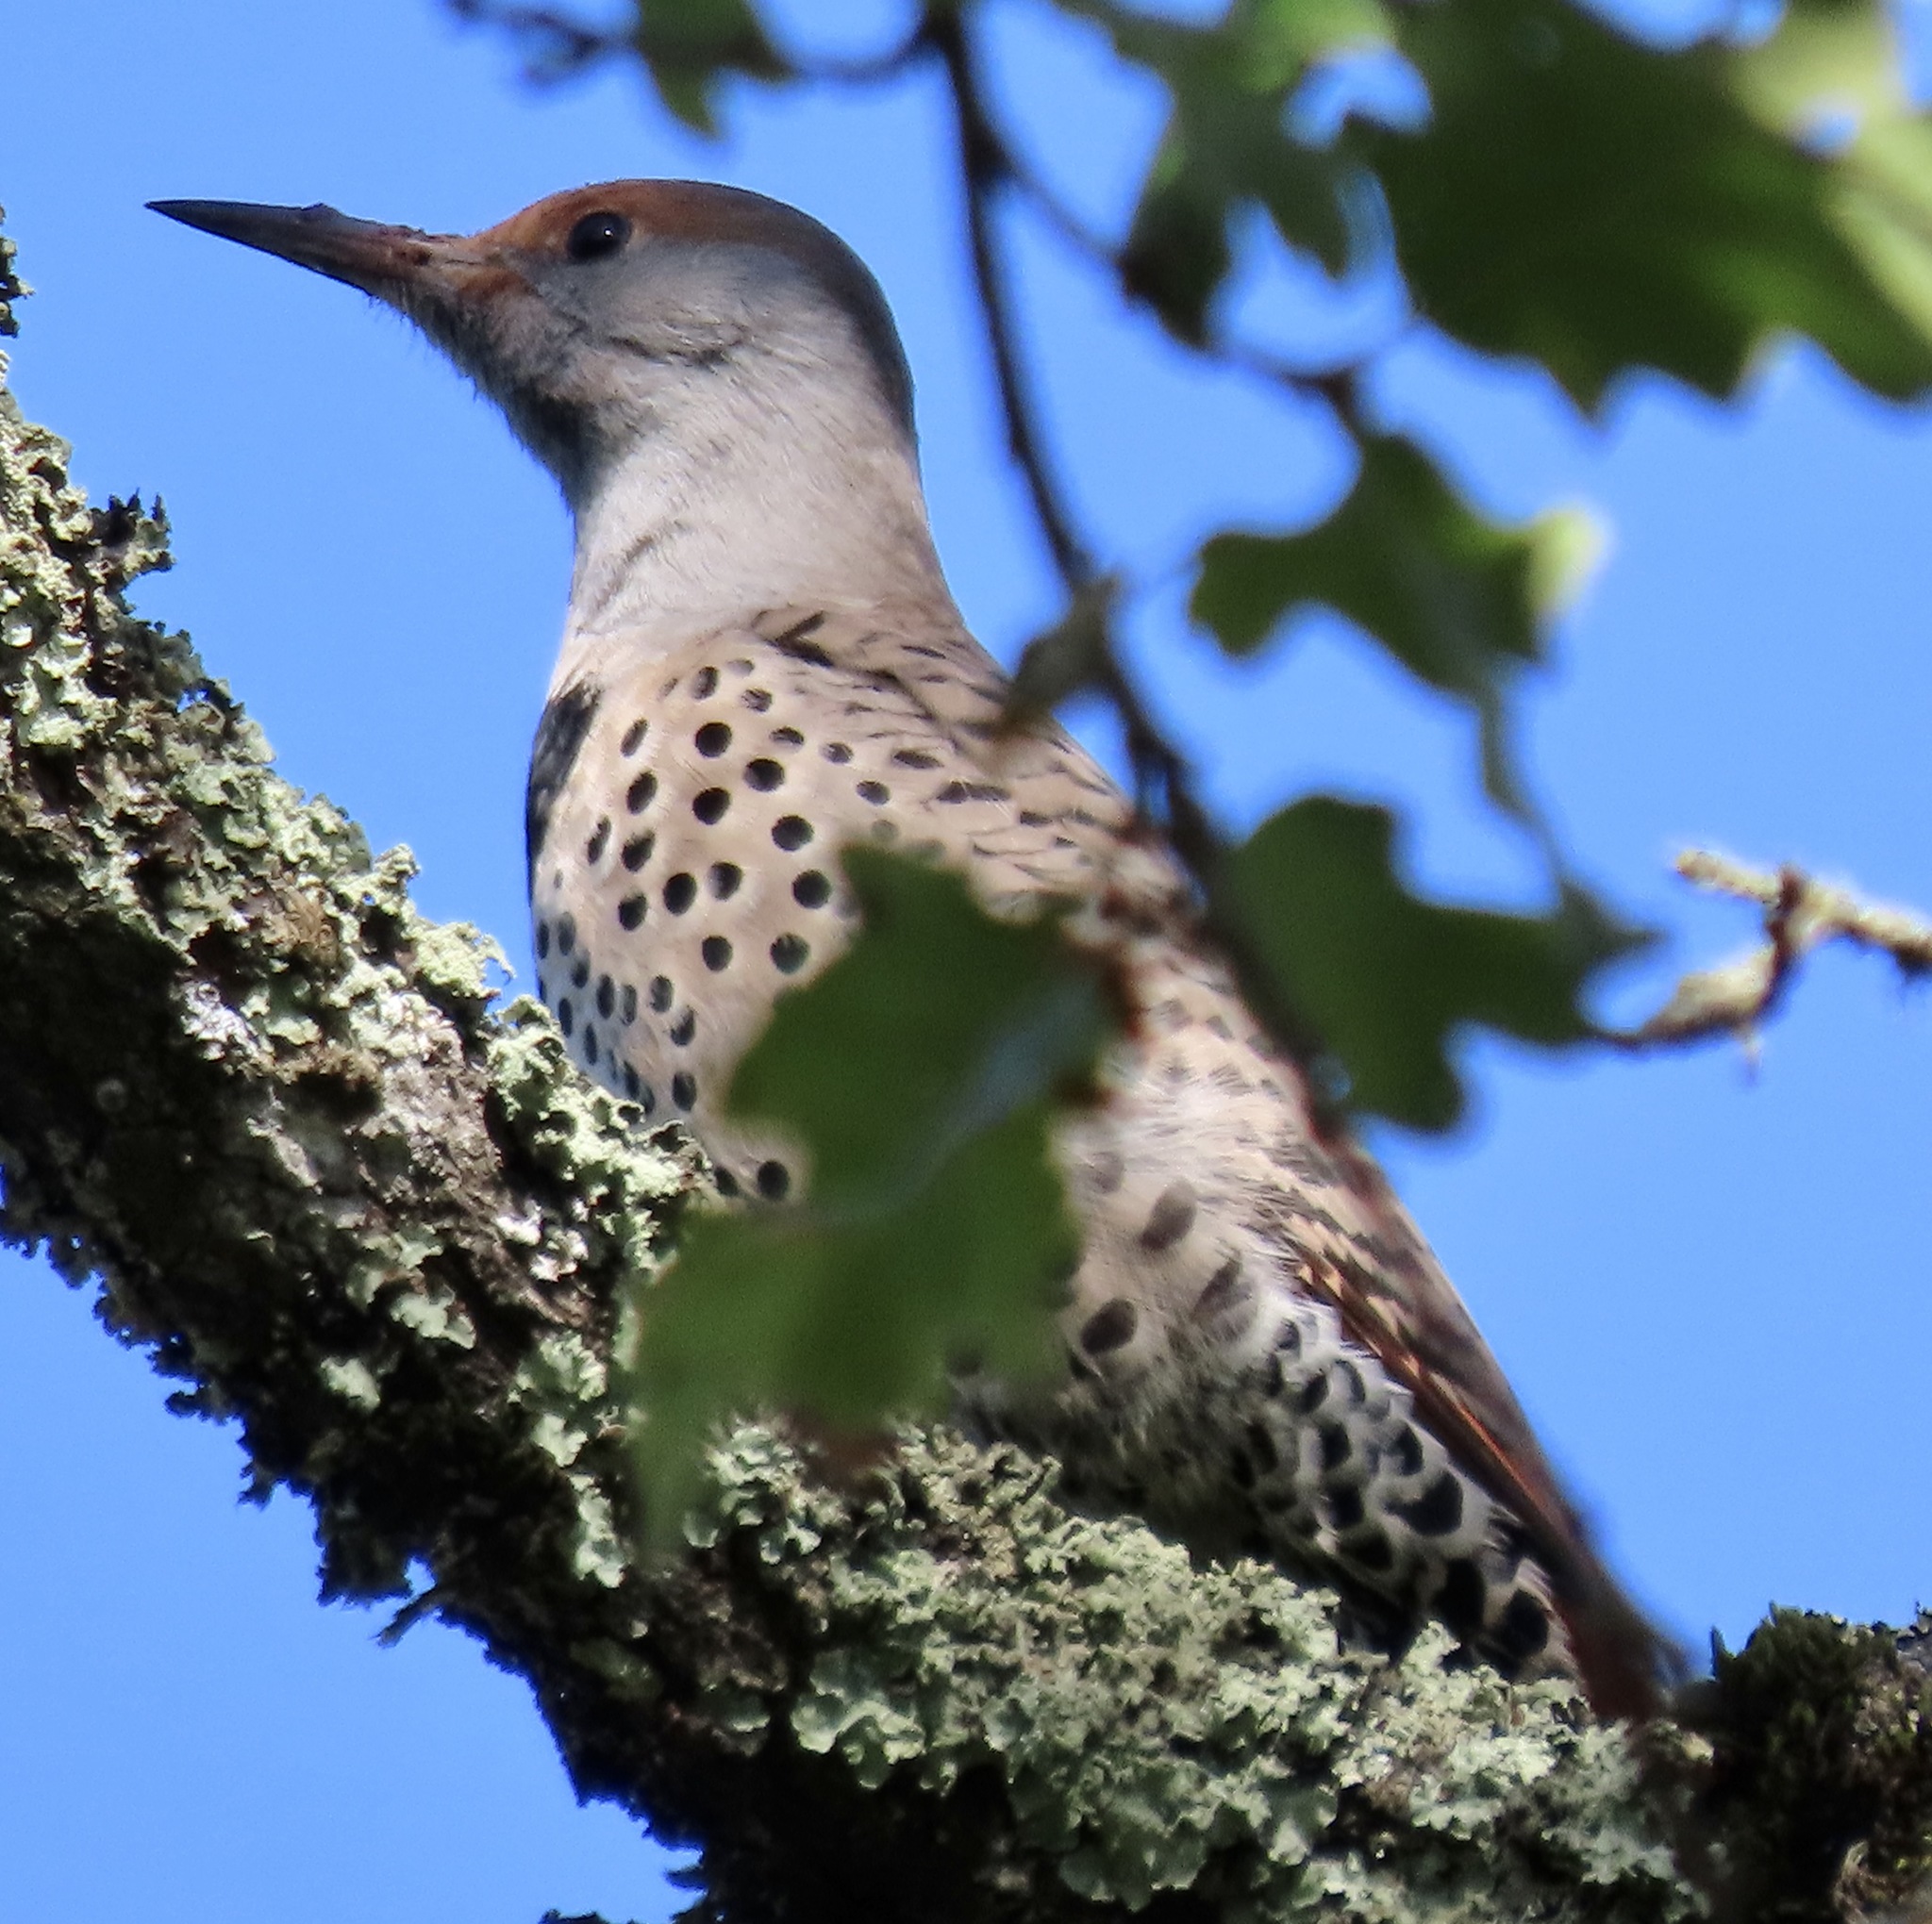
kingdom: Animalia
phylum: Chordata
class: Aves
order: Piciformes
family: Picidae
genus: Colaptes
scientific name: Colaptes auratus
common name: Northern flicker
